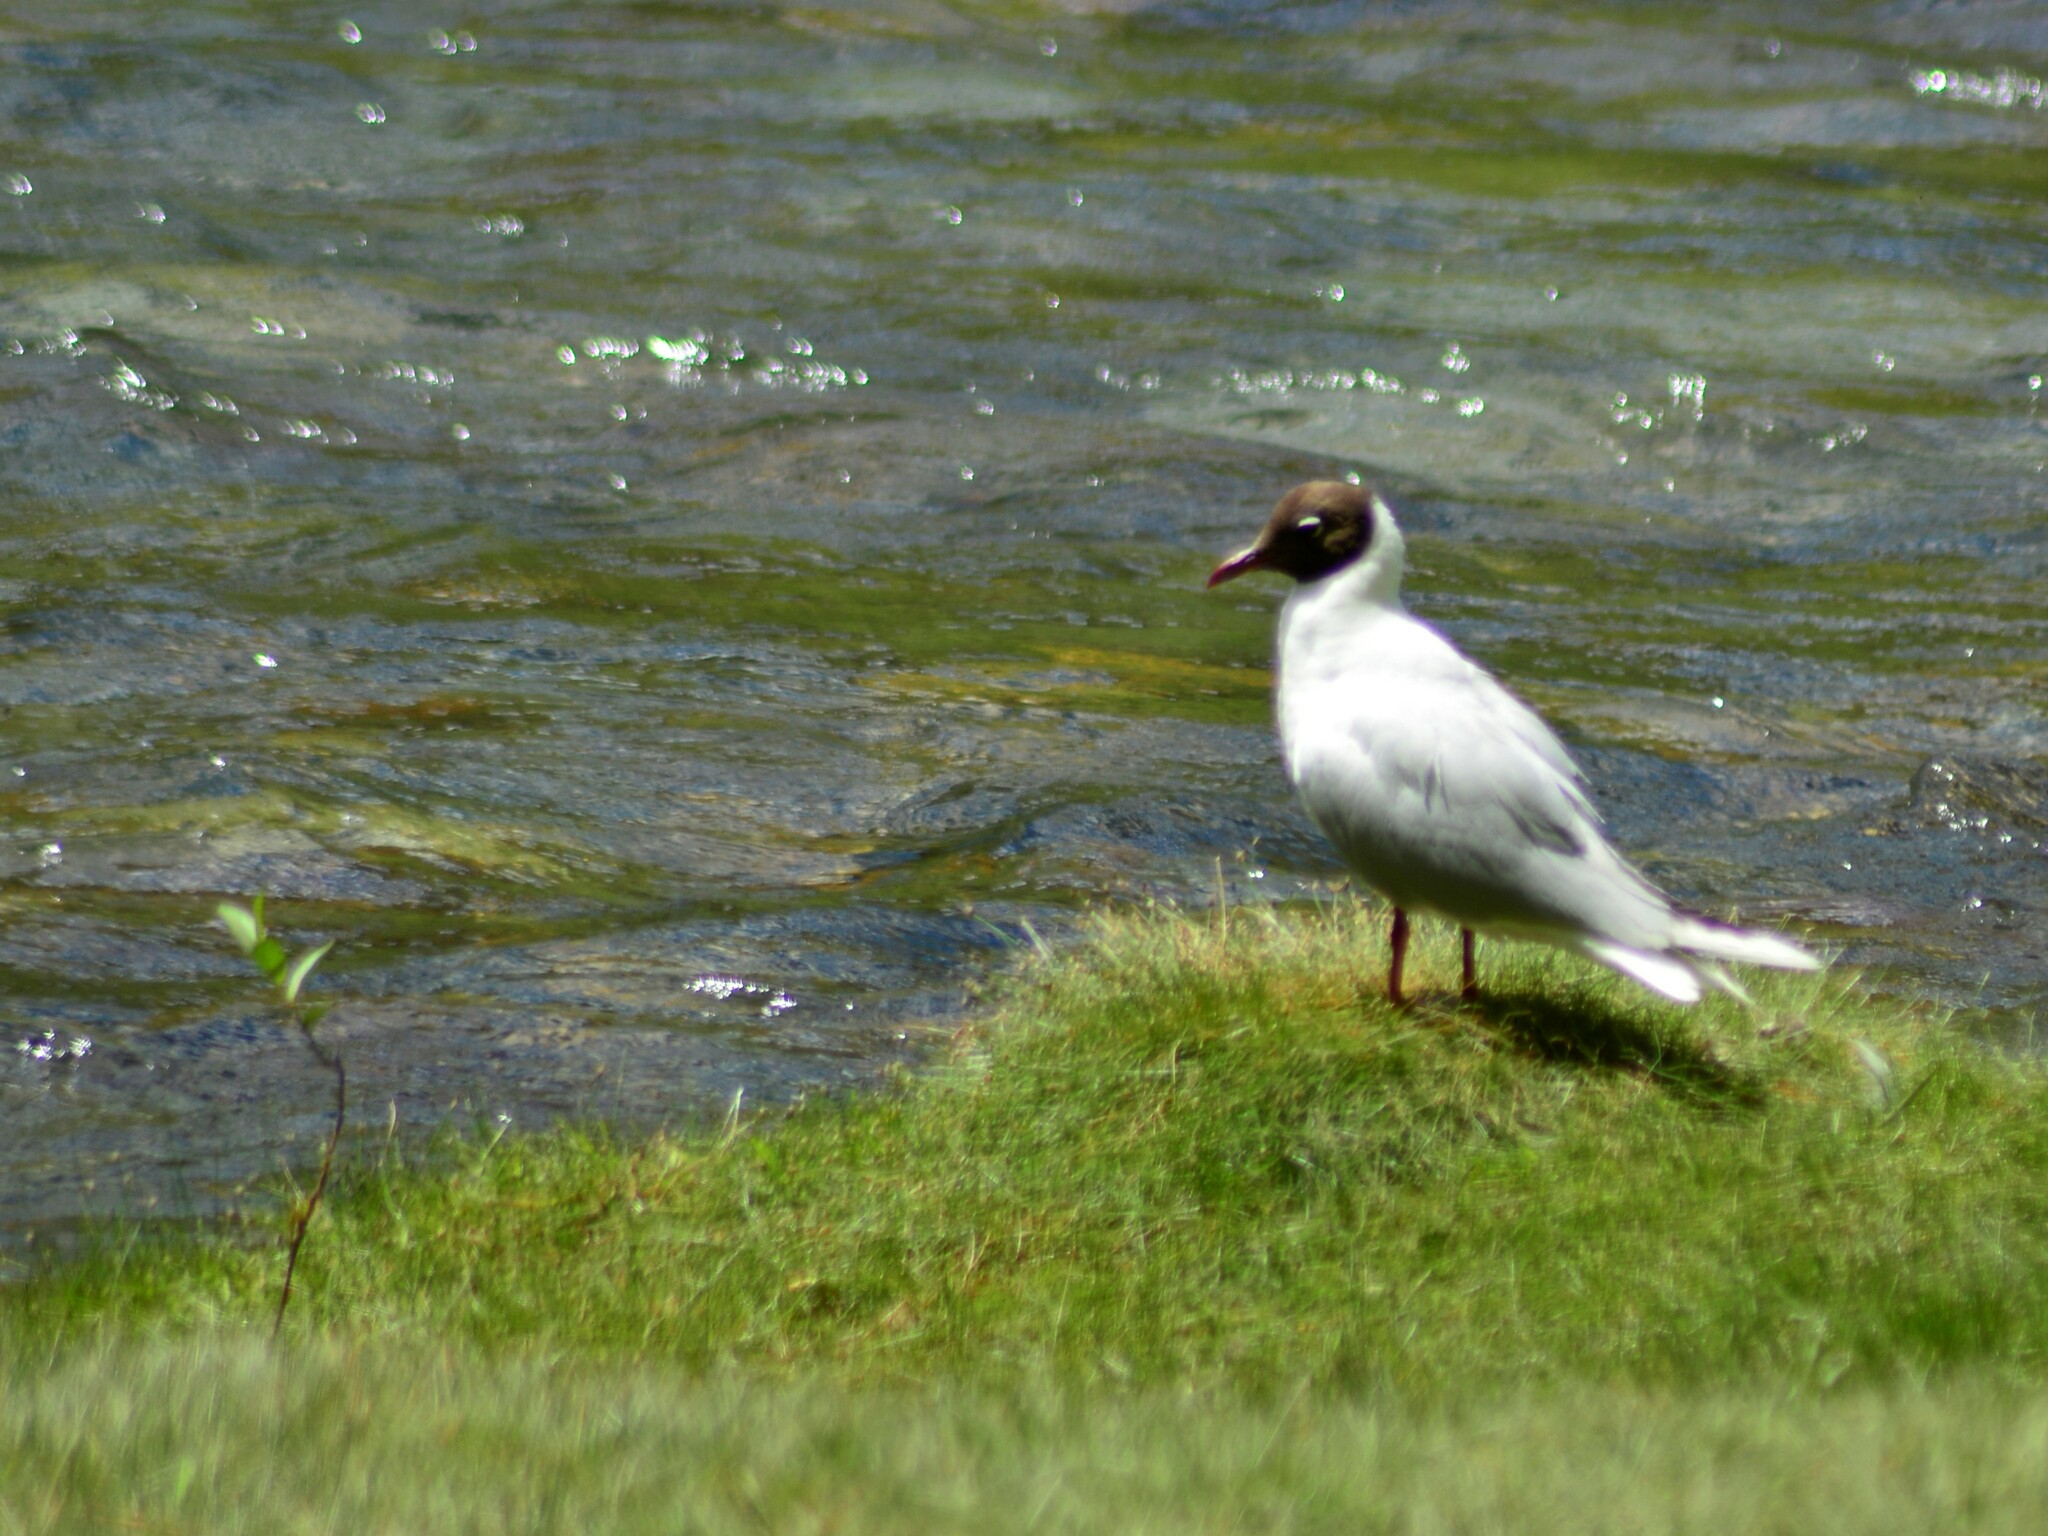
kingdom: Animalia
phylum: Chordata
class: Aves
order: Charadriiformes
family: Laridae
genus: Chroicocephalus
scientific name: Chroicocephalus serranus
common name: Andean gull
